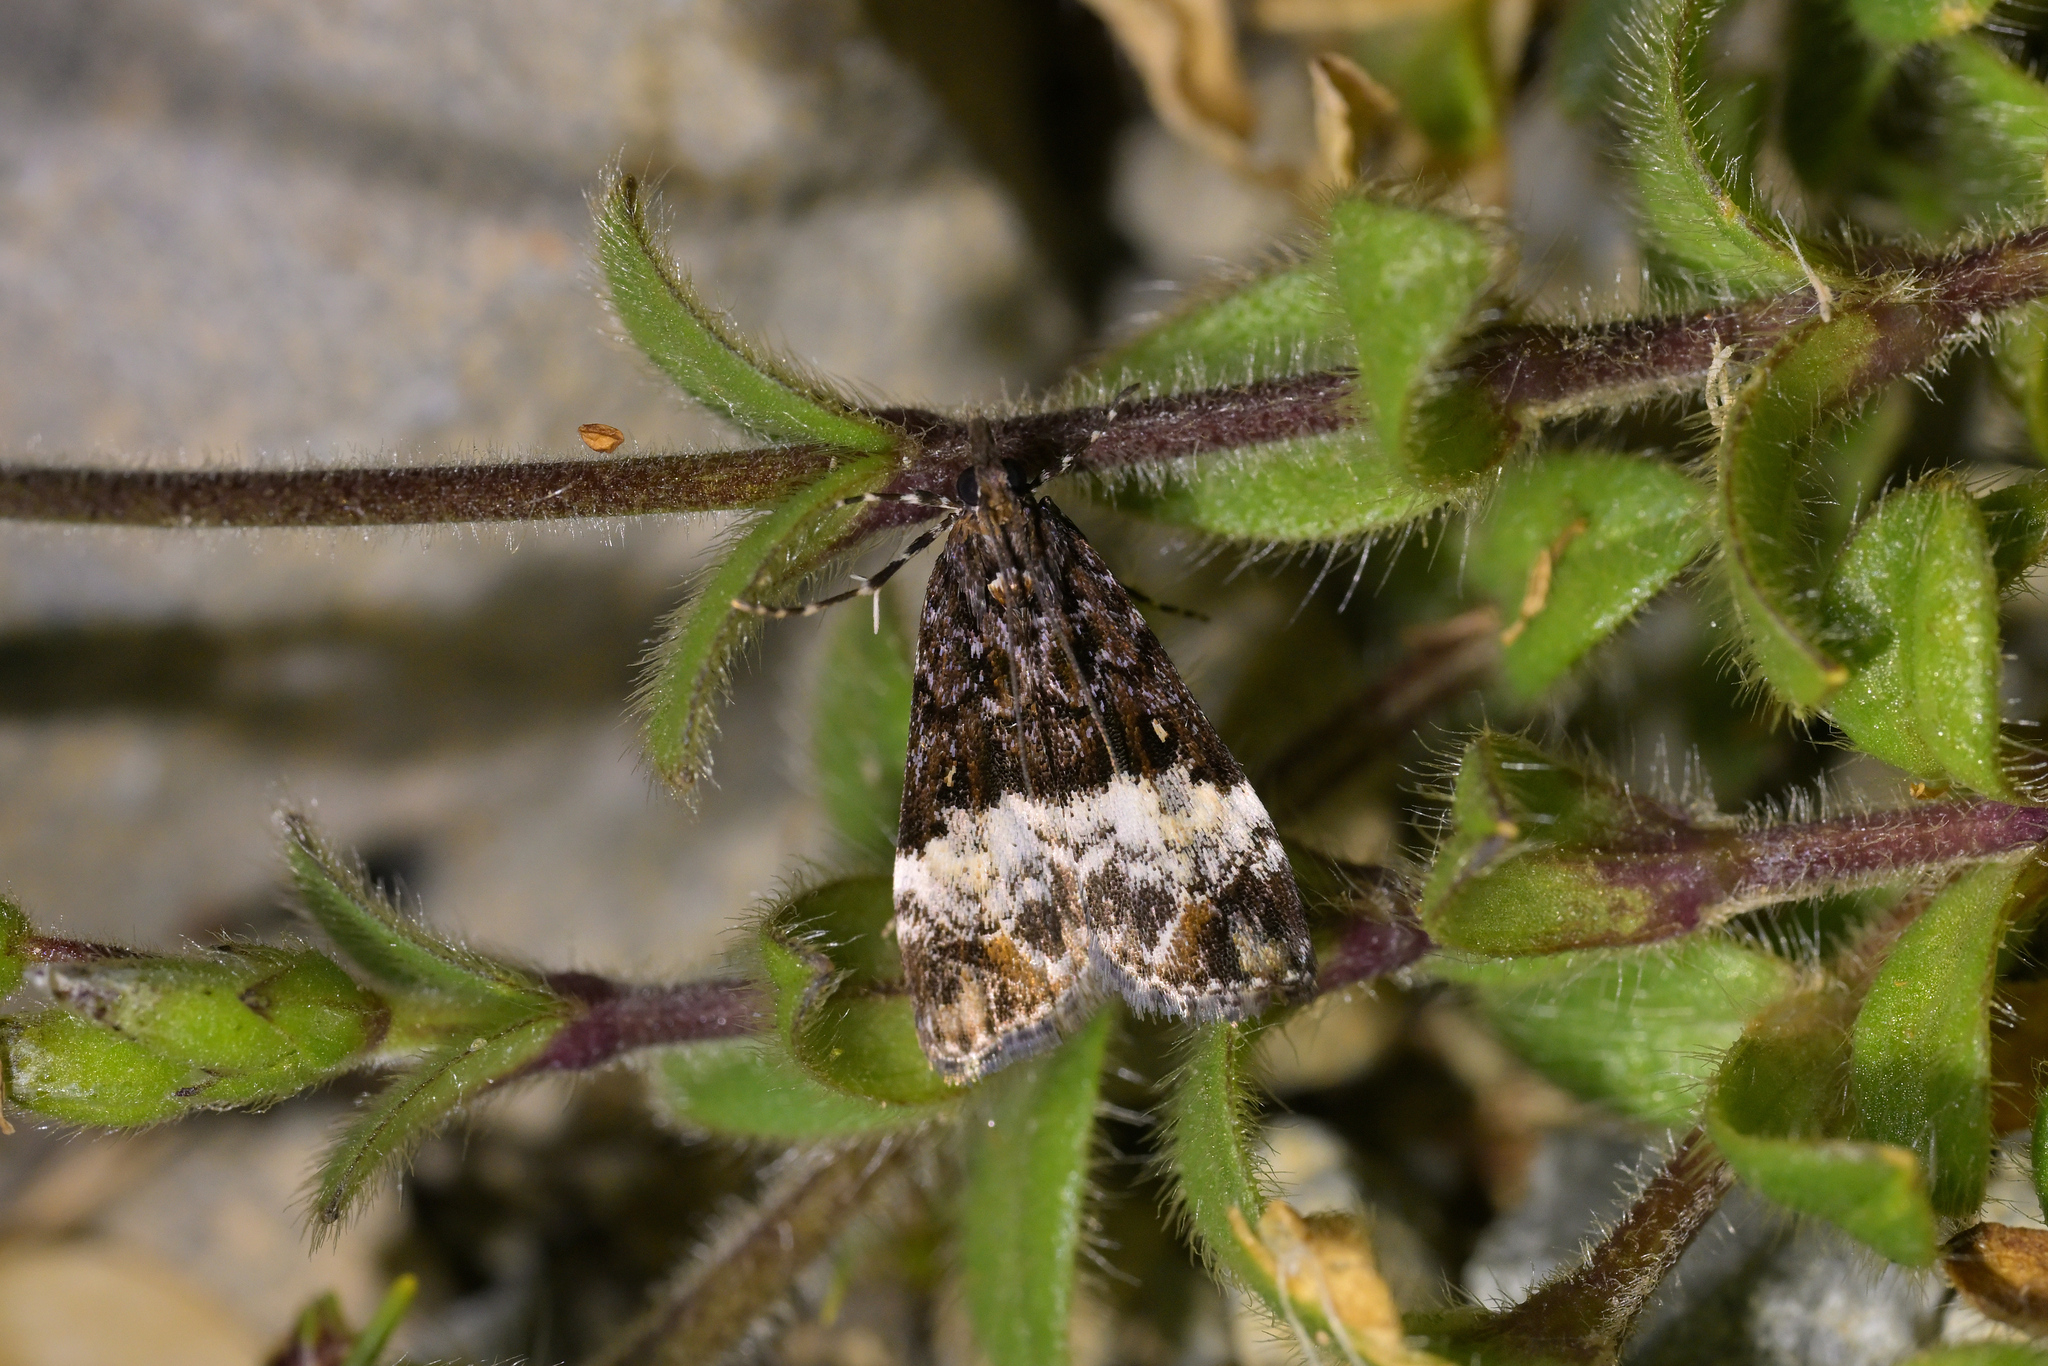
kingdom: Animalia
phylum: Arthropoda
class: Insecta
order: Lepidoptera
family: Crambidae
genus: Scoparia
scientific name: Scoparia minusculalis
